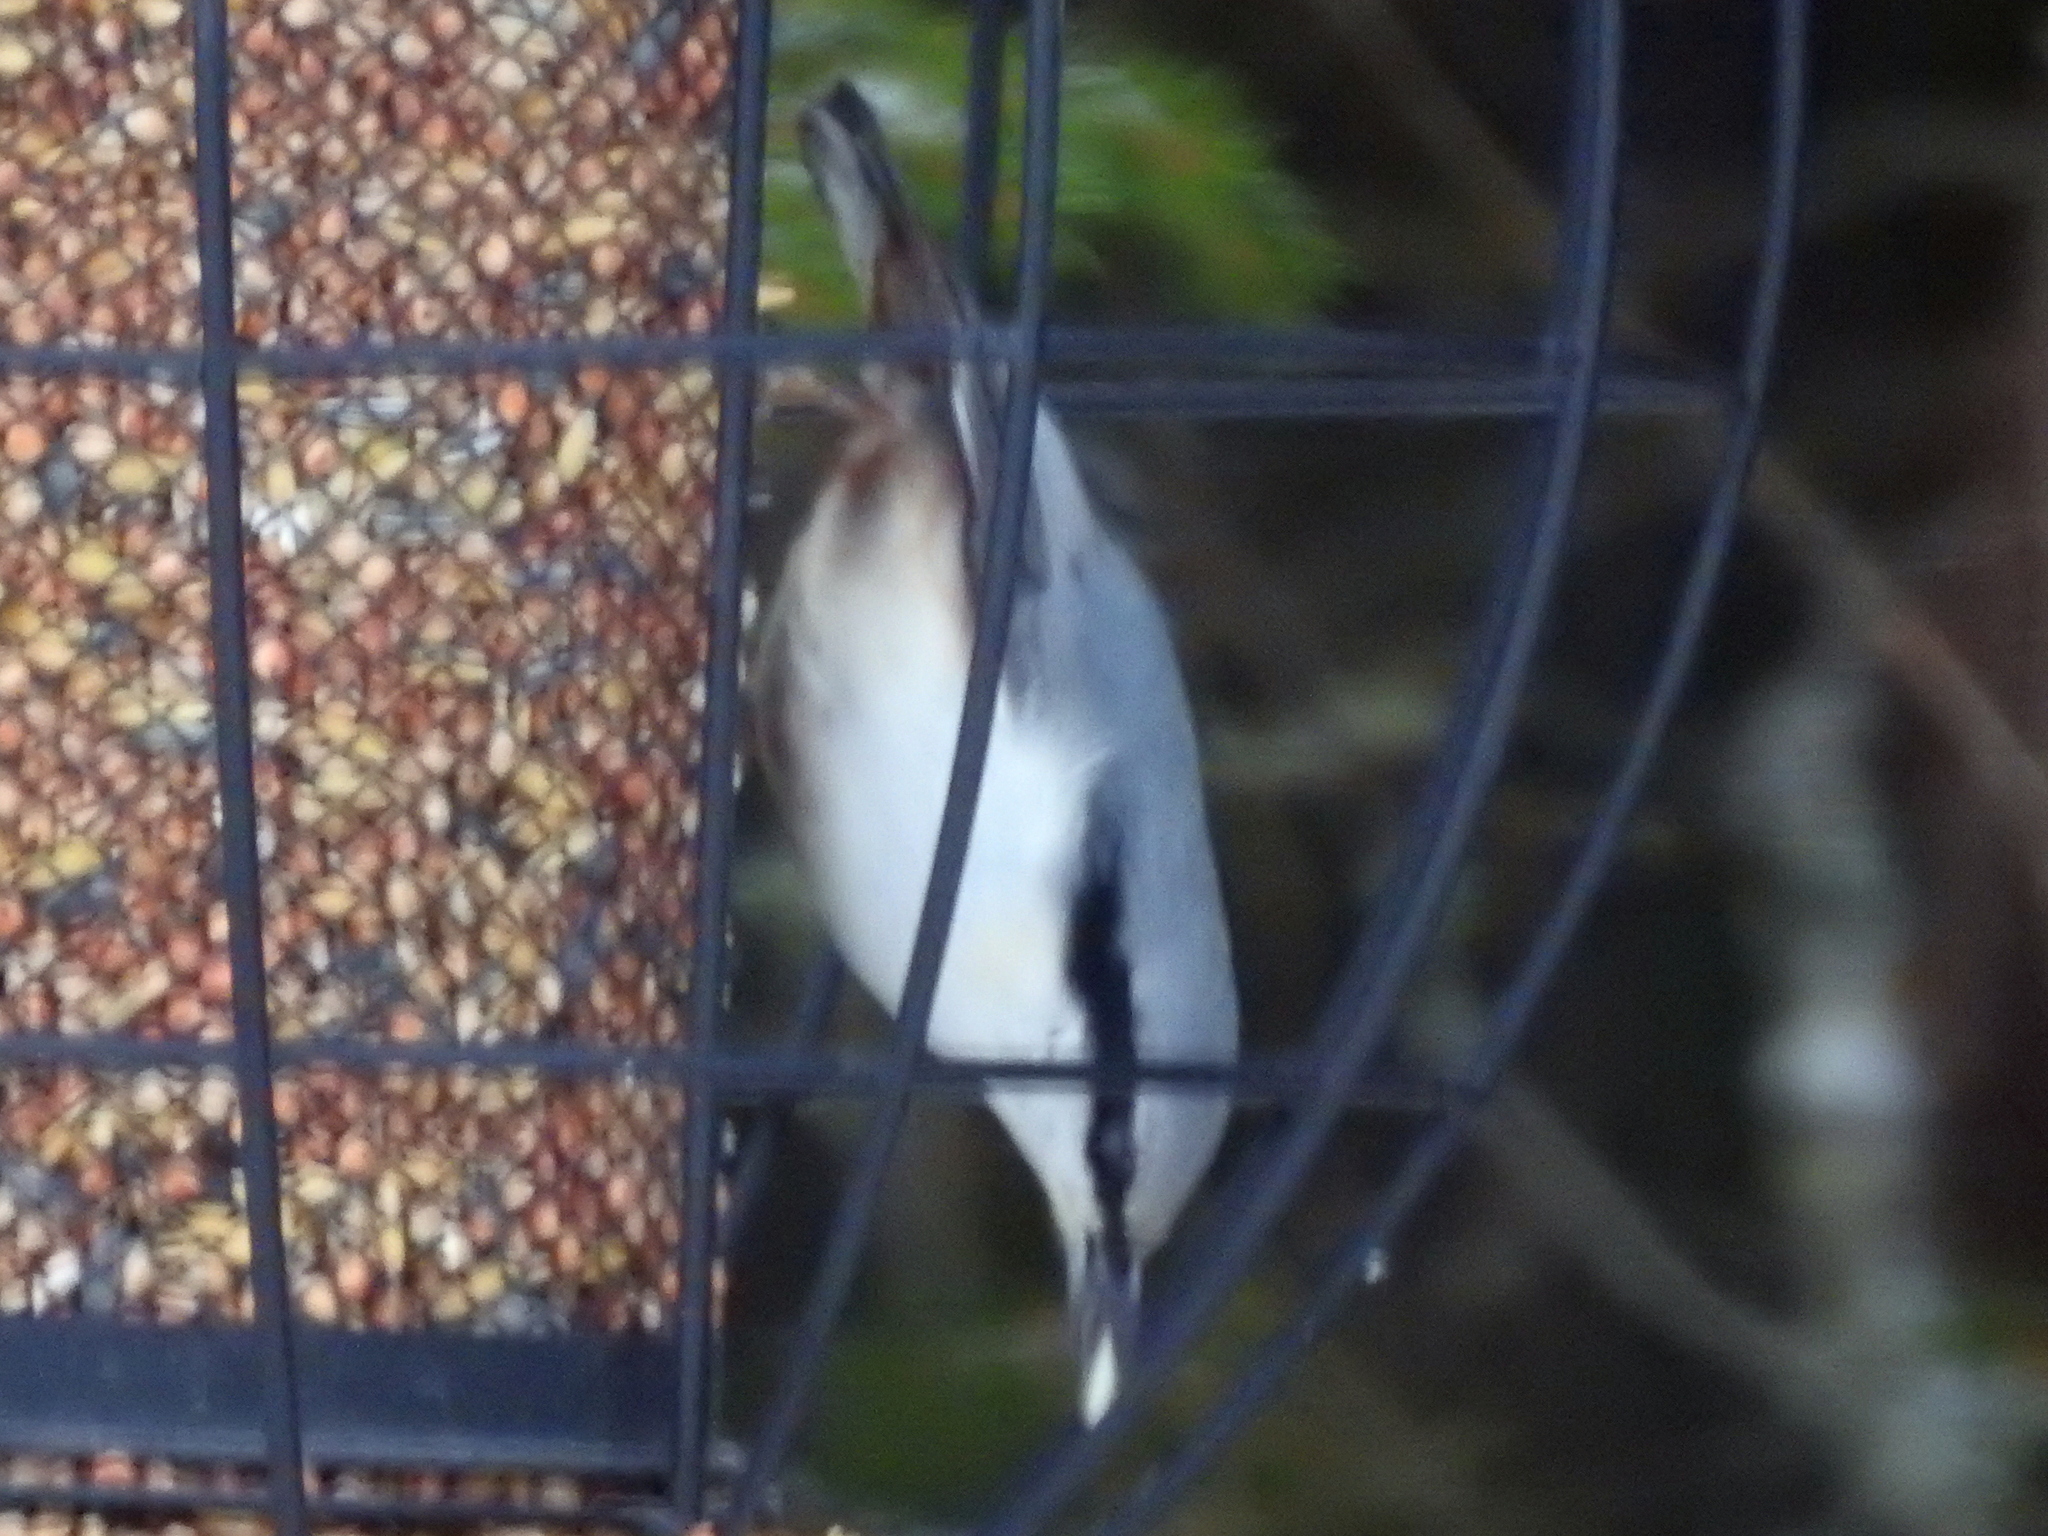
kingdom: Animalia
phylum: Chordata
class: Aves
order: Passeriformes
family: Sittidae
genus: Sitta
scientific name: Sitta europaea
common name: Eurasian nuthatch
